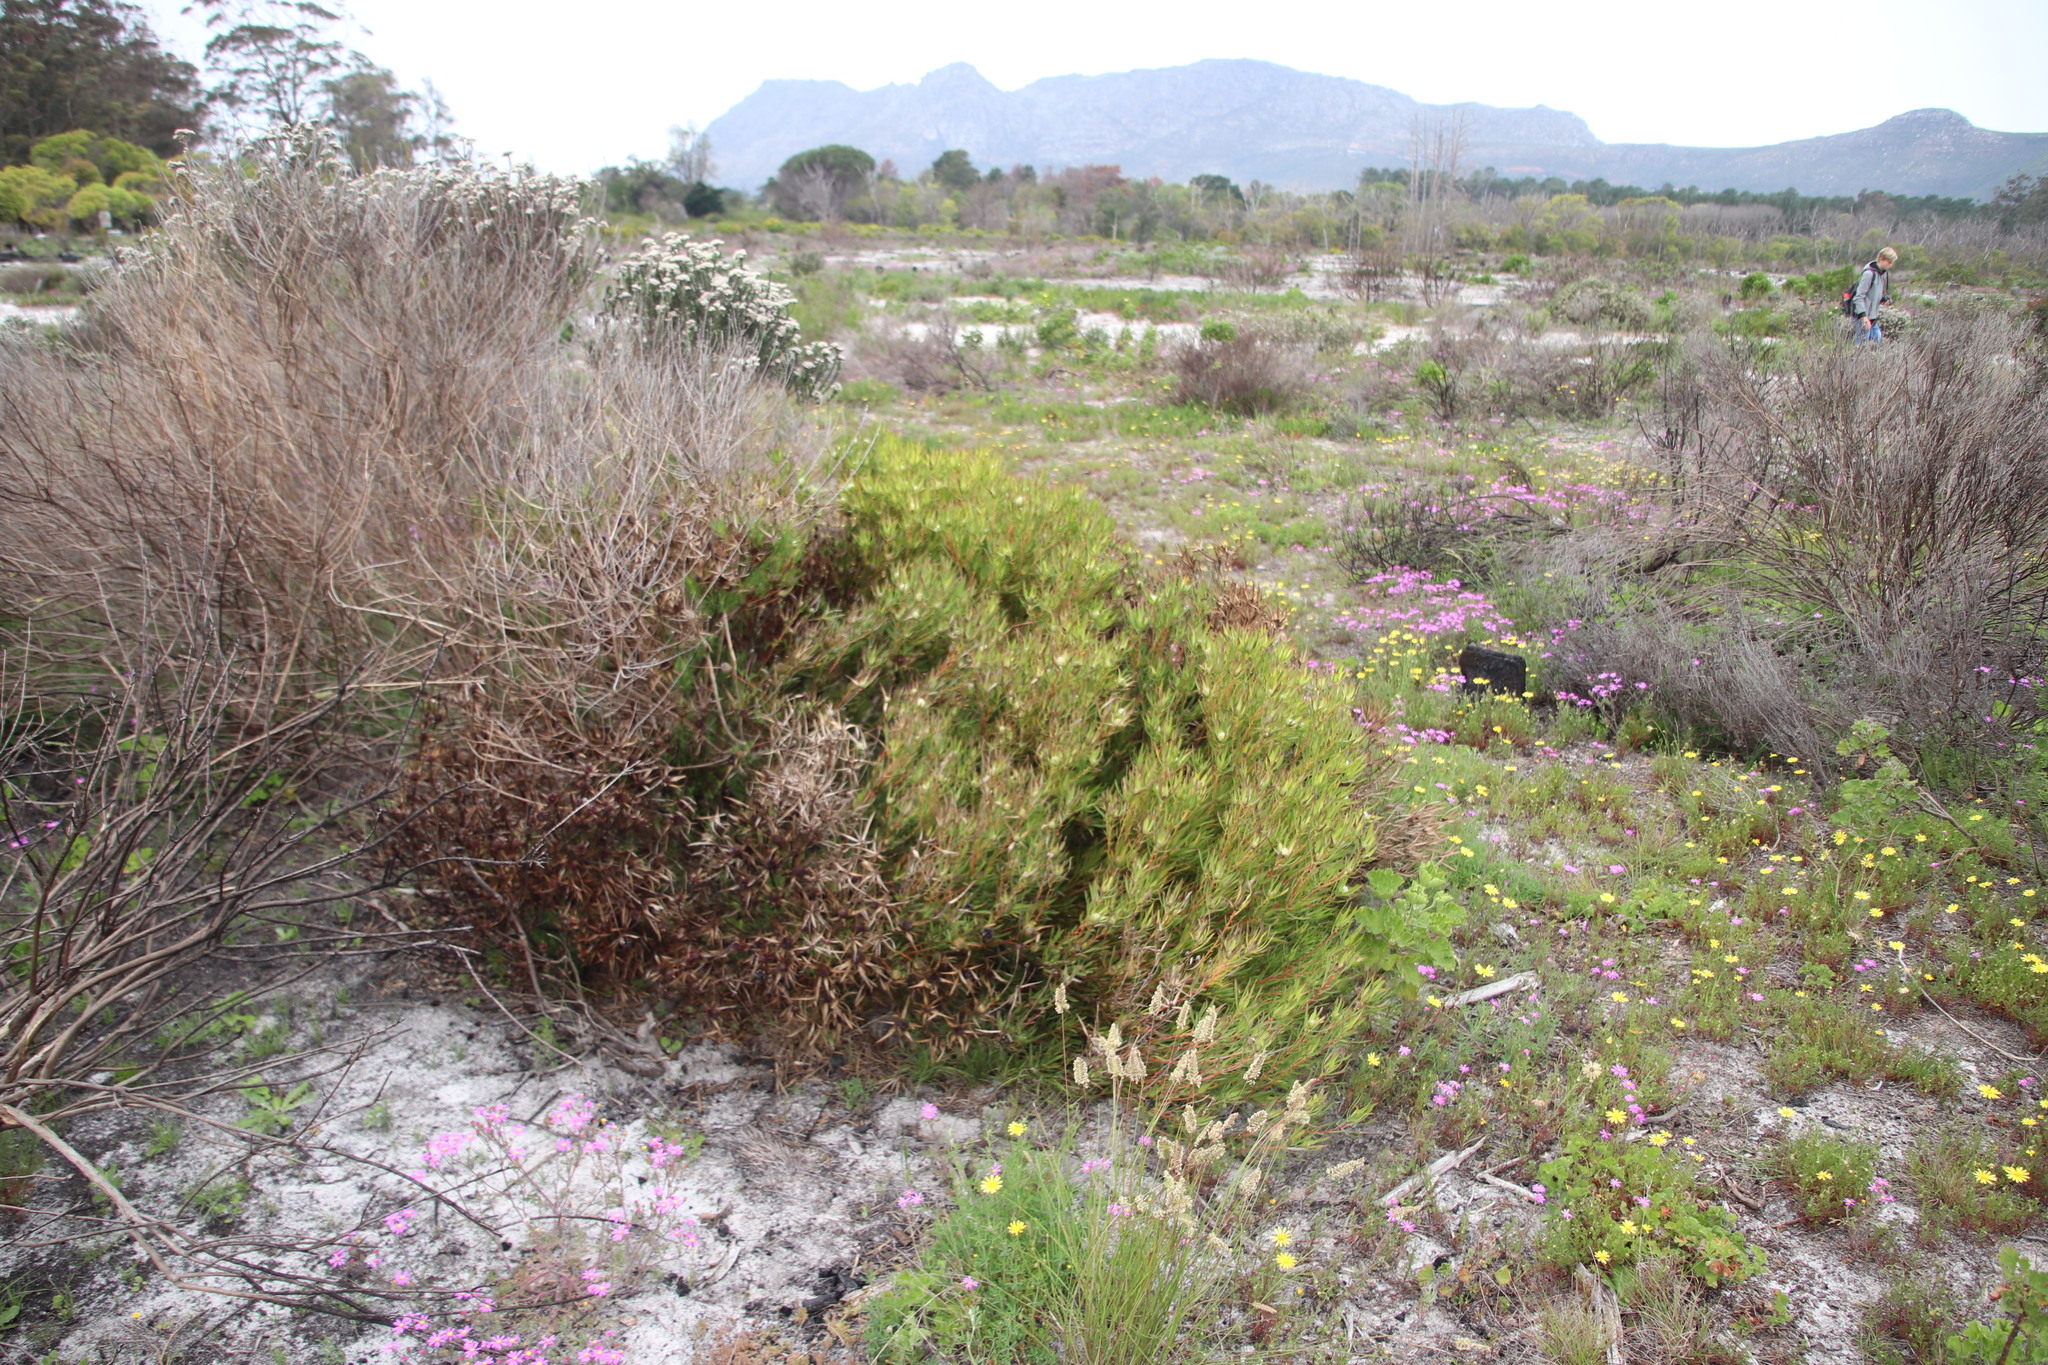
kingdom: Plantae
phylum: Tracheophyta
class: Magnoliopsida
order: Proteales
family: Proteaceae
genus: Leucadendron
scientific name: Leucadendron salignum
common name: Common sunshine conebush
